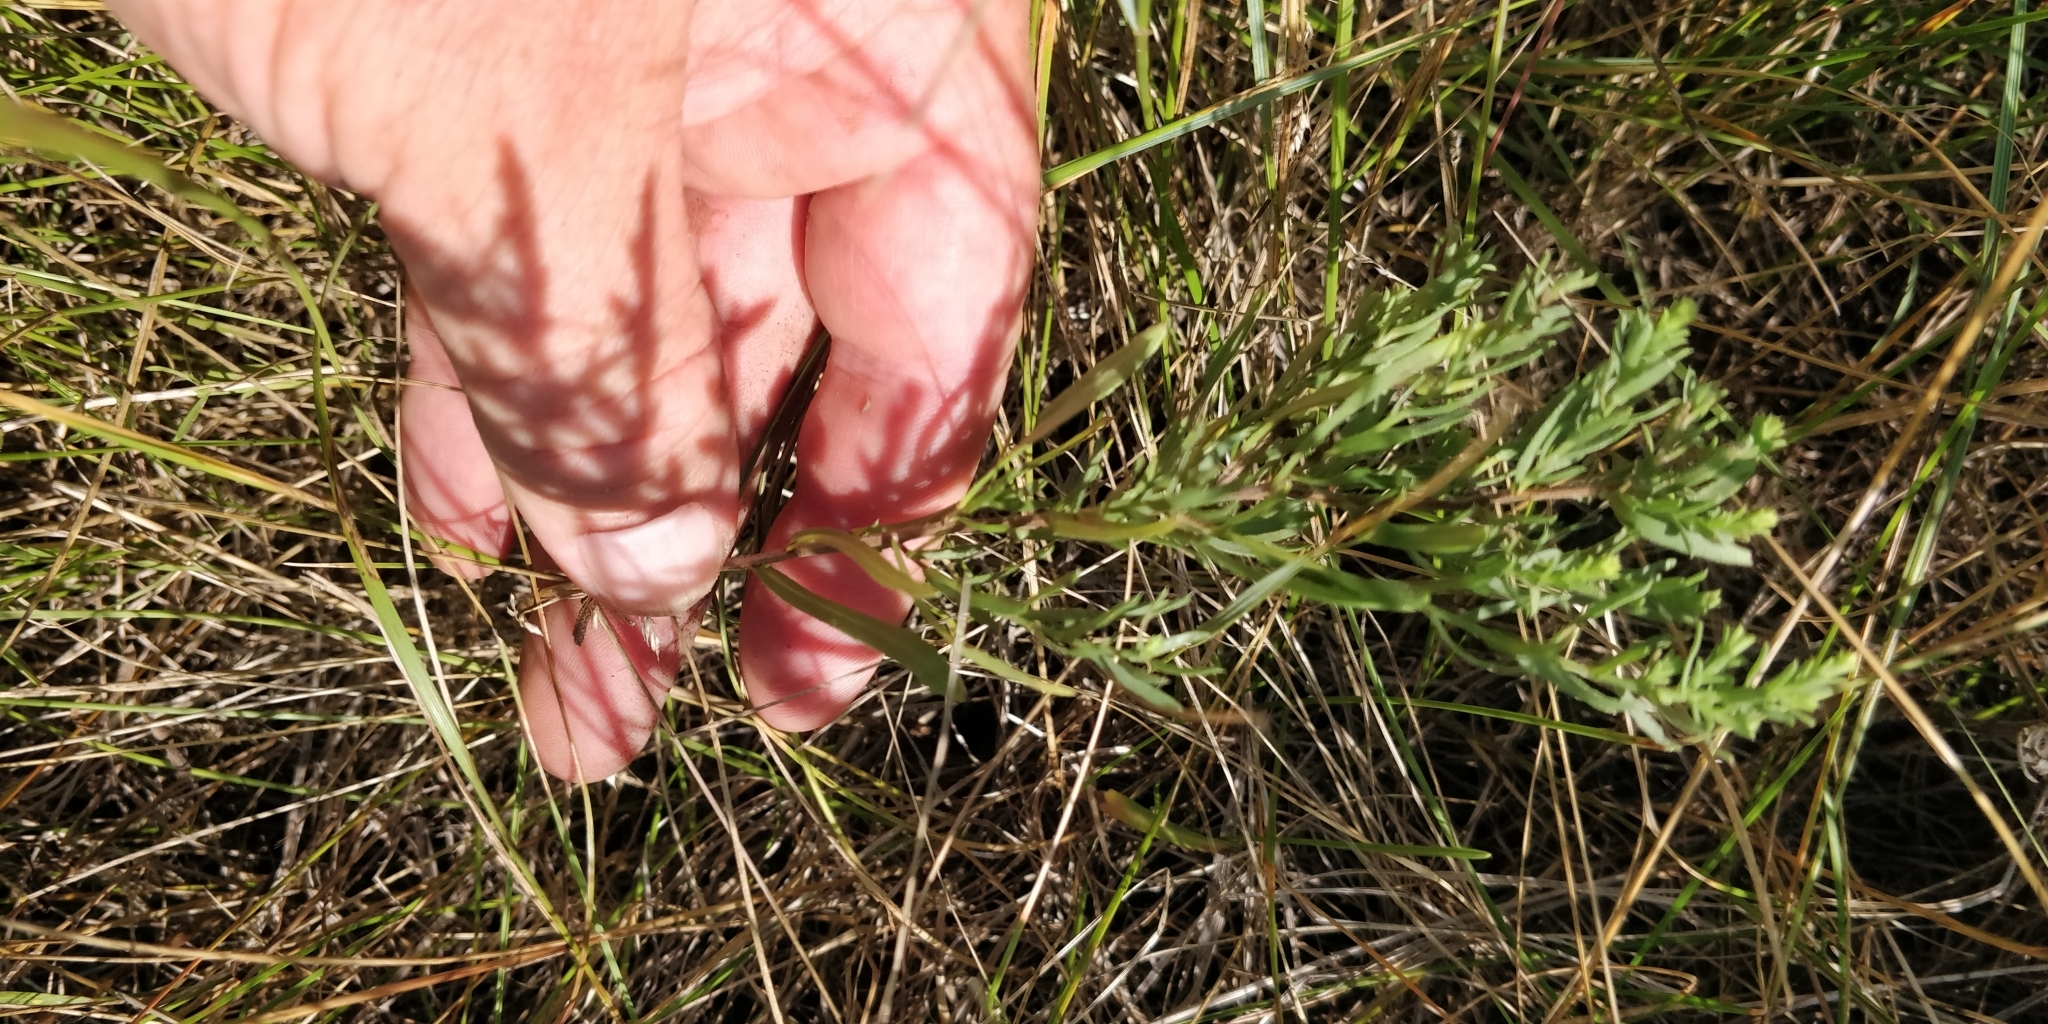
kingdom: Plantae
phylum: Tracheophyta
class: Magnoliopsida
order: Asterales
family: Asteraceae
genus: Symphyotrichum
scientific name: Symphyotrichum ericoides
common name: Heath aster
